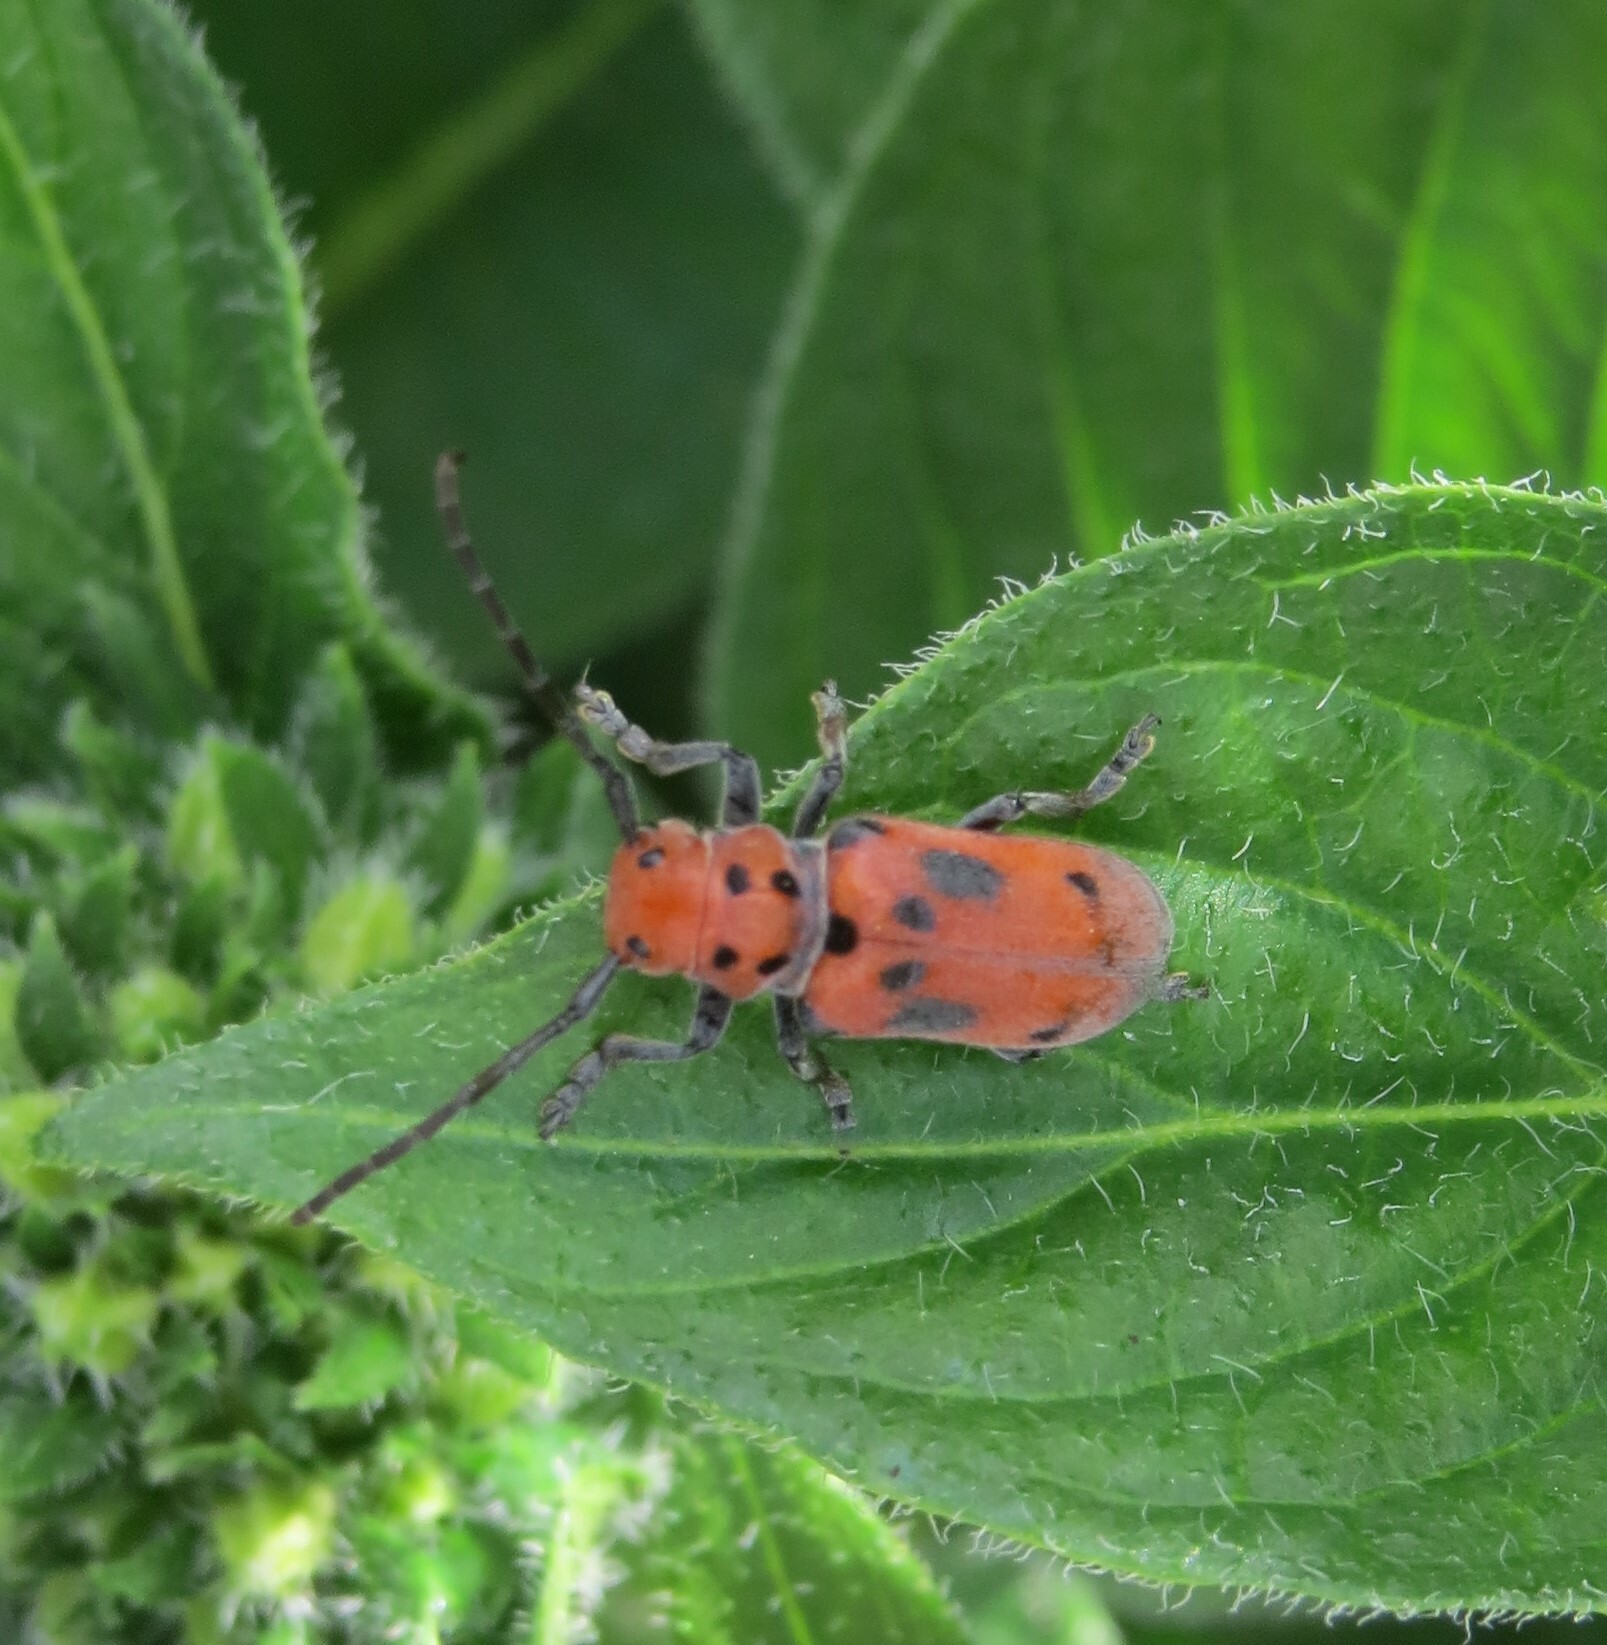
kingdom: Animalia
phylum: Arthropoda
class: Insecta
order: Coleoptera
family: Cerambycidae
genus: Tetraopes
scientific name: Tetraopes tetrophthalmus
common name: Red milkweed beetle
